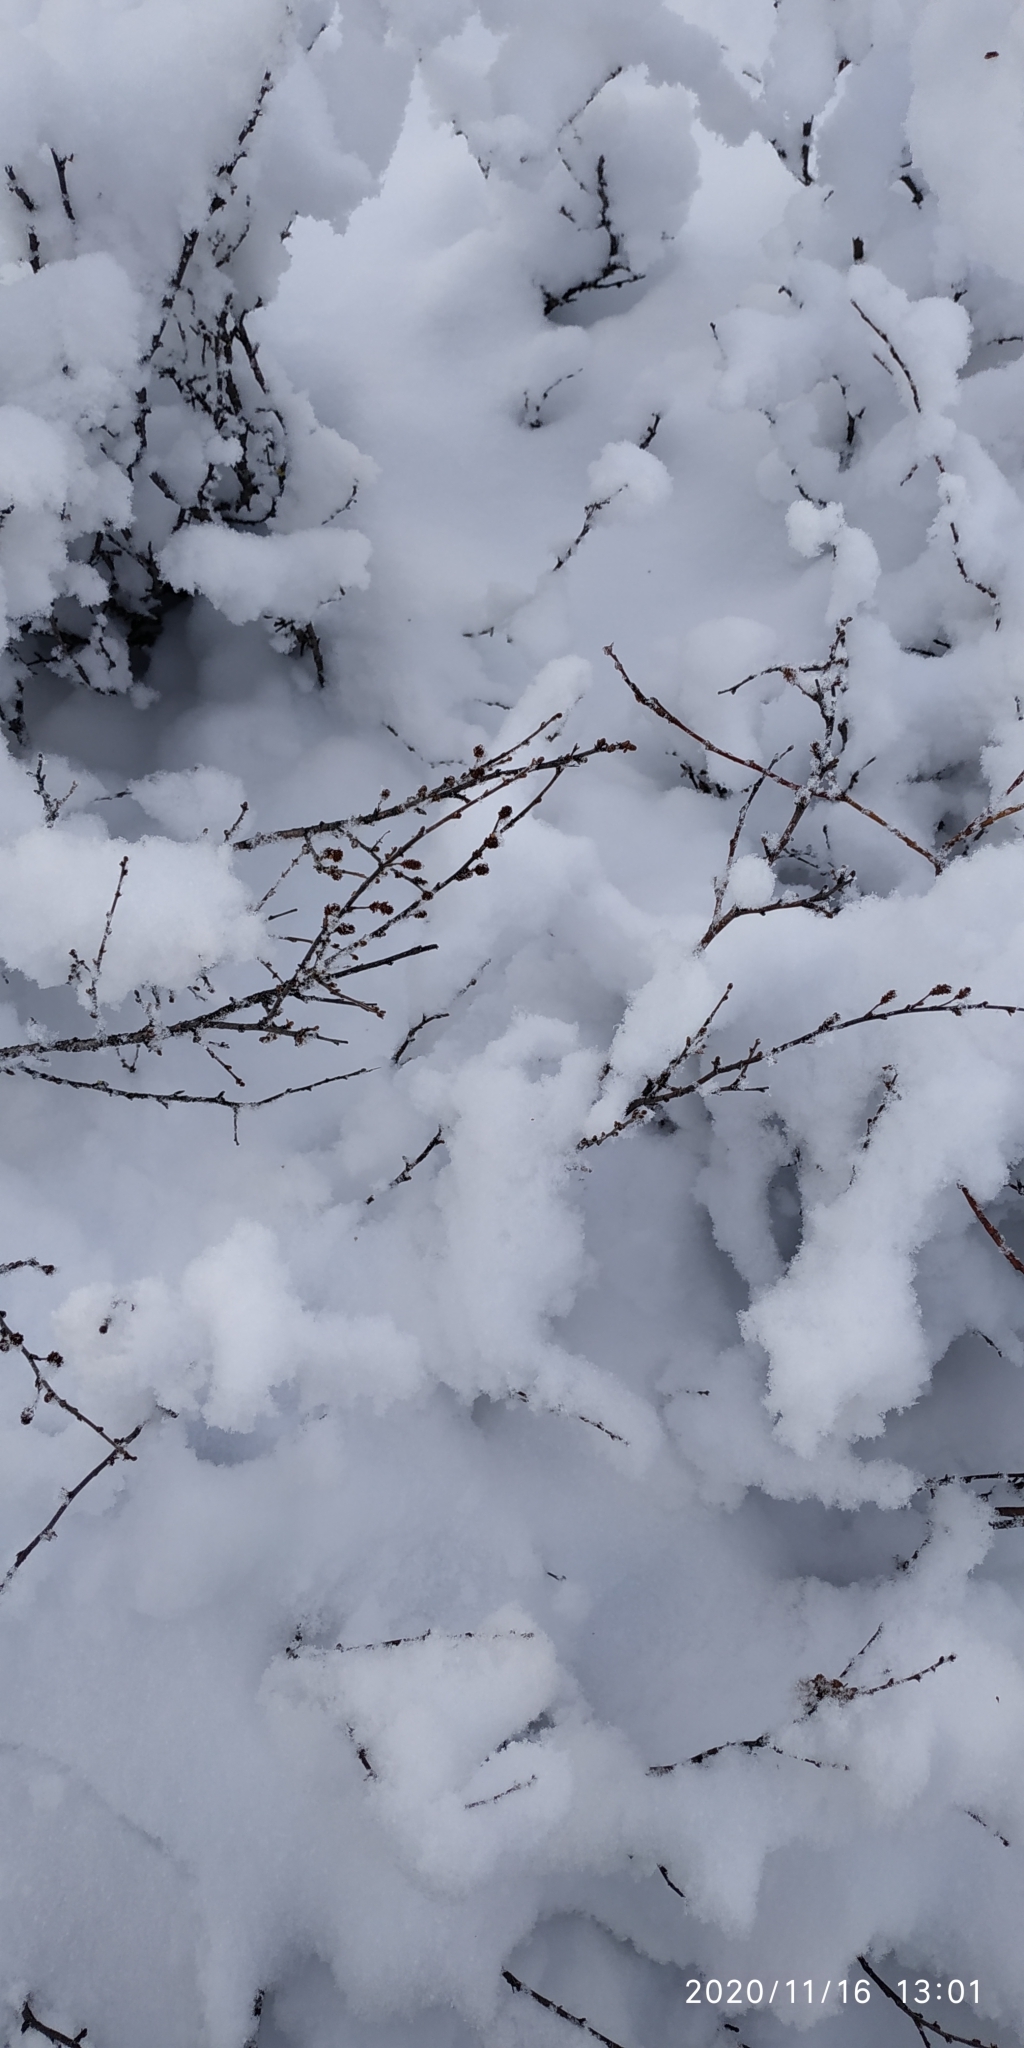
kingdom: Plantae
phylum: Tracheophyta
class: Magnoliopsida
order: Fagales
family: Betulaceae
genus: Betula
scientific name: Betula nana
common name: Arctic dwarf birch
